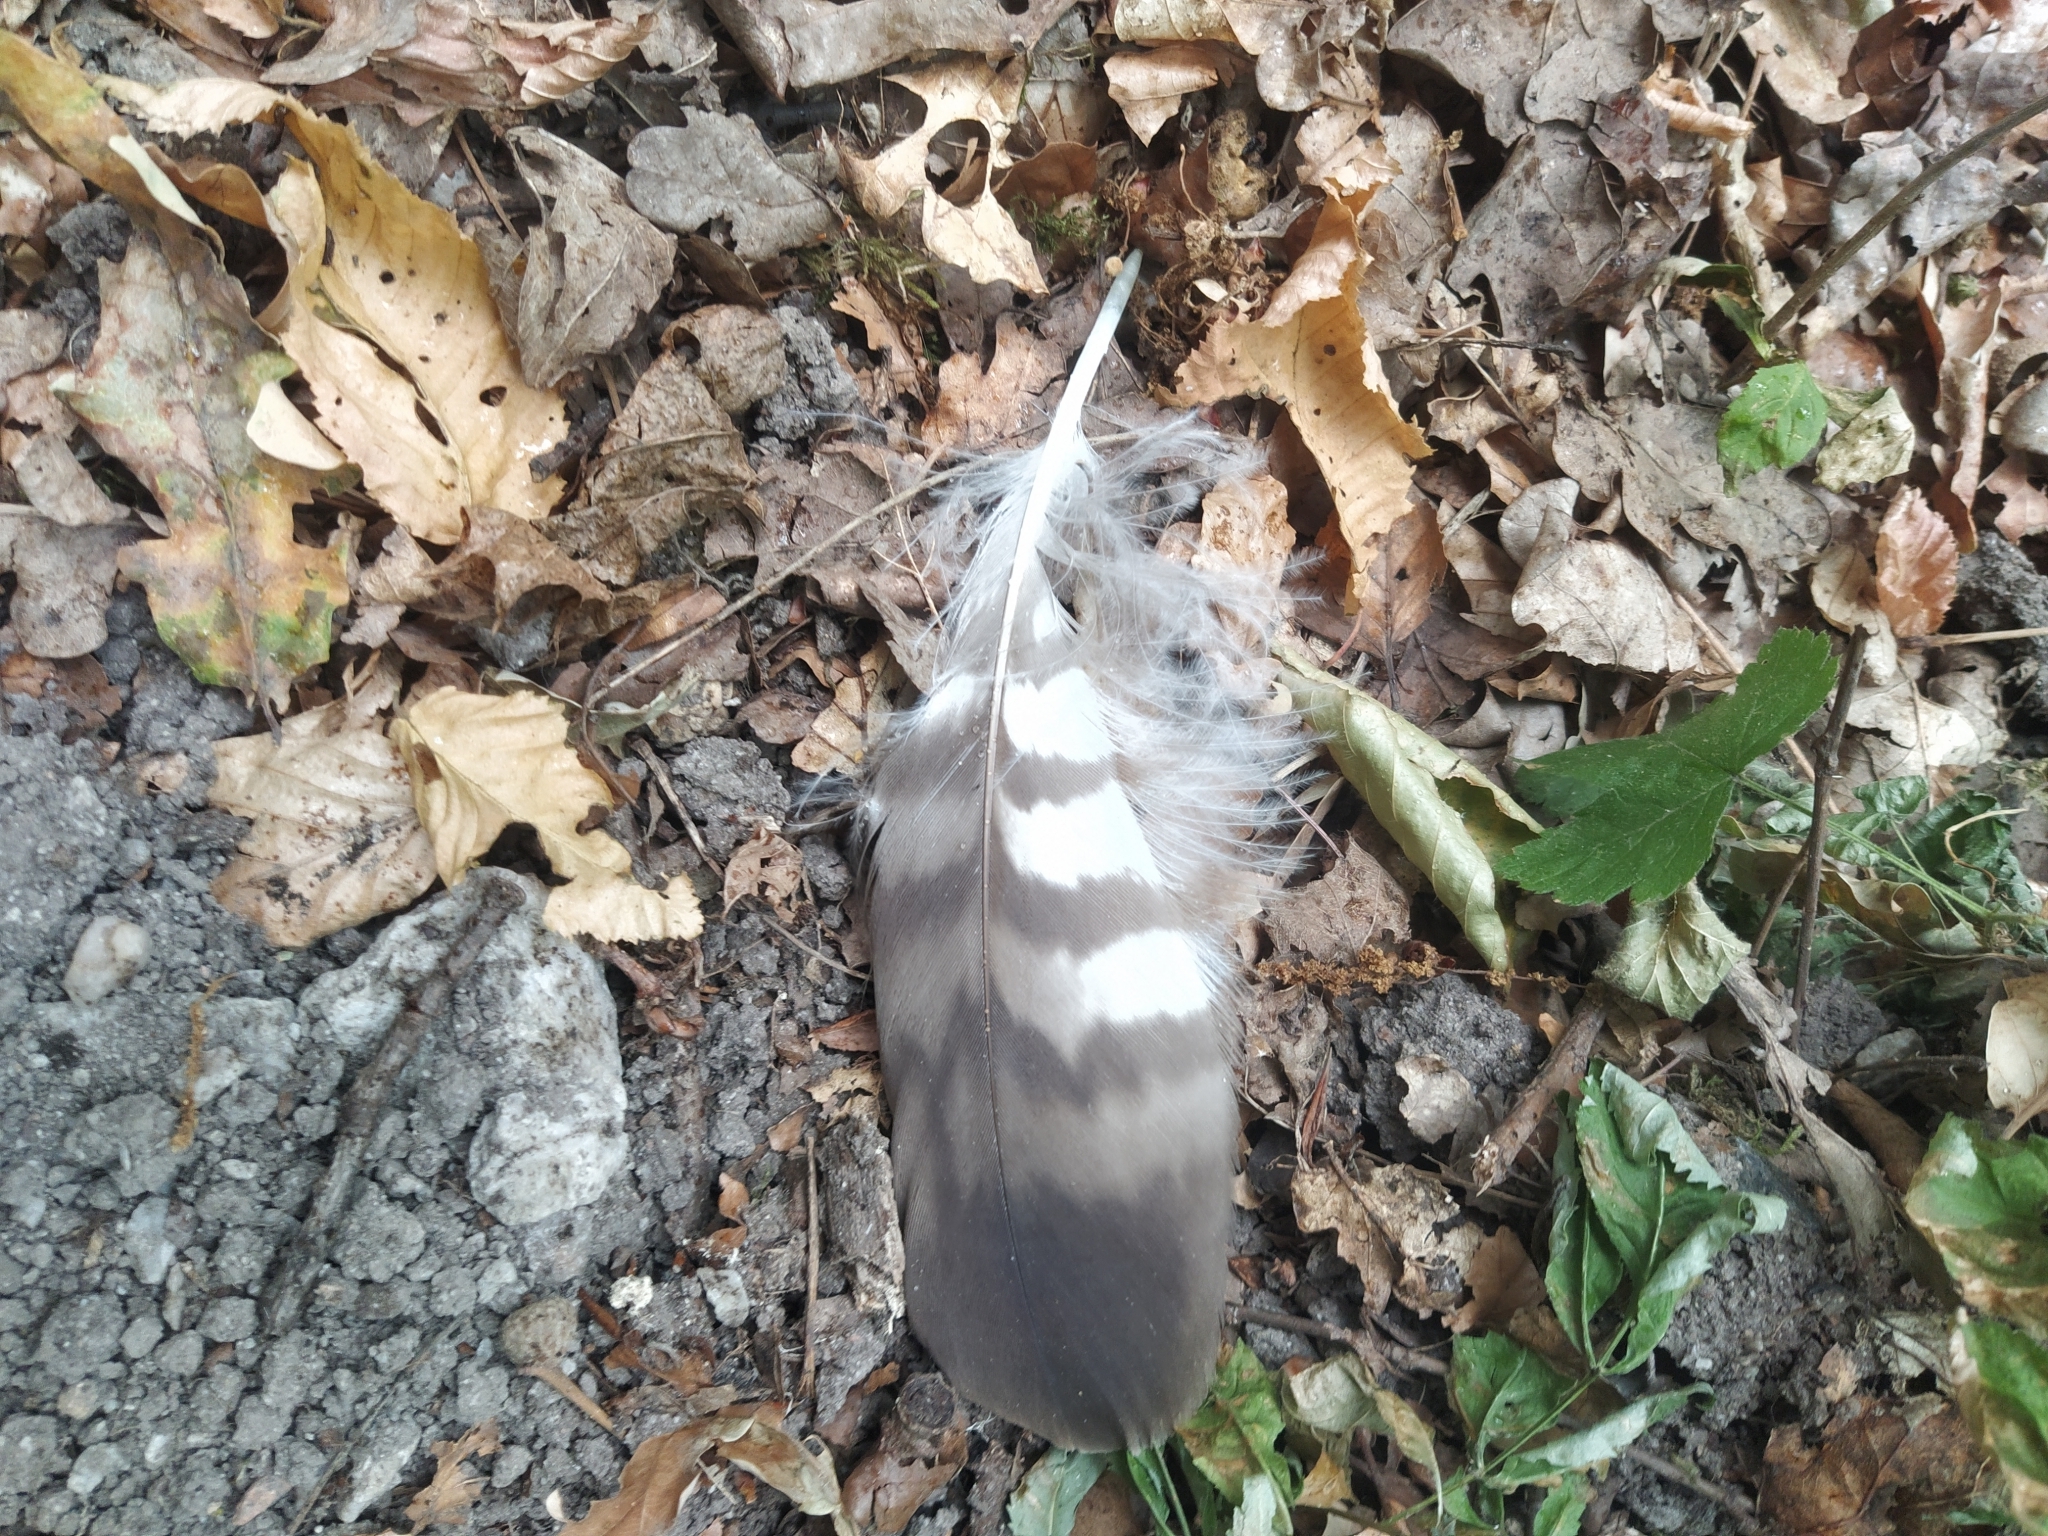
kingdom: Animalia
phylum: Chordata
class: Aves
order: Accipitriformes
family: Accipitridae
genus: Buteo
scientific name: Buteo buteo
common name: Common buzzard
